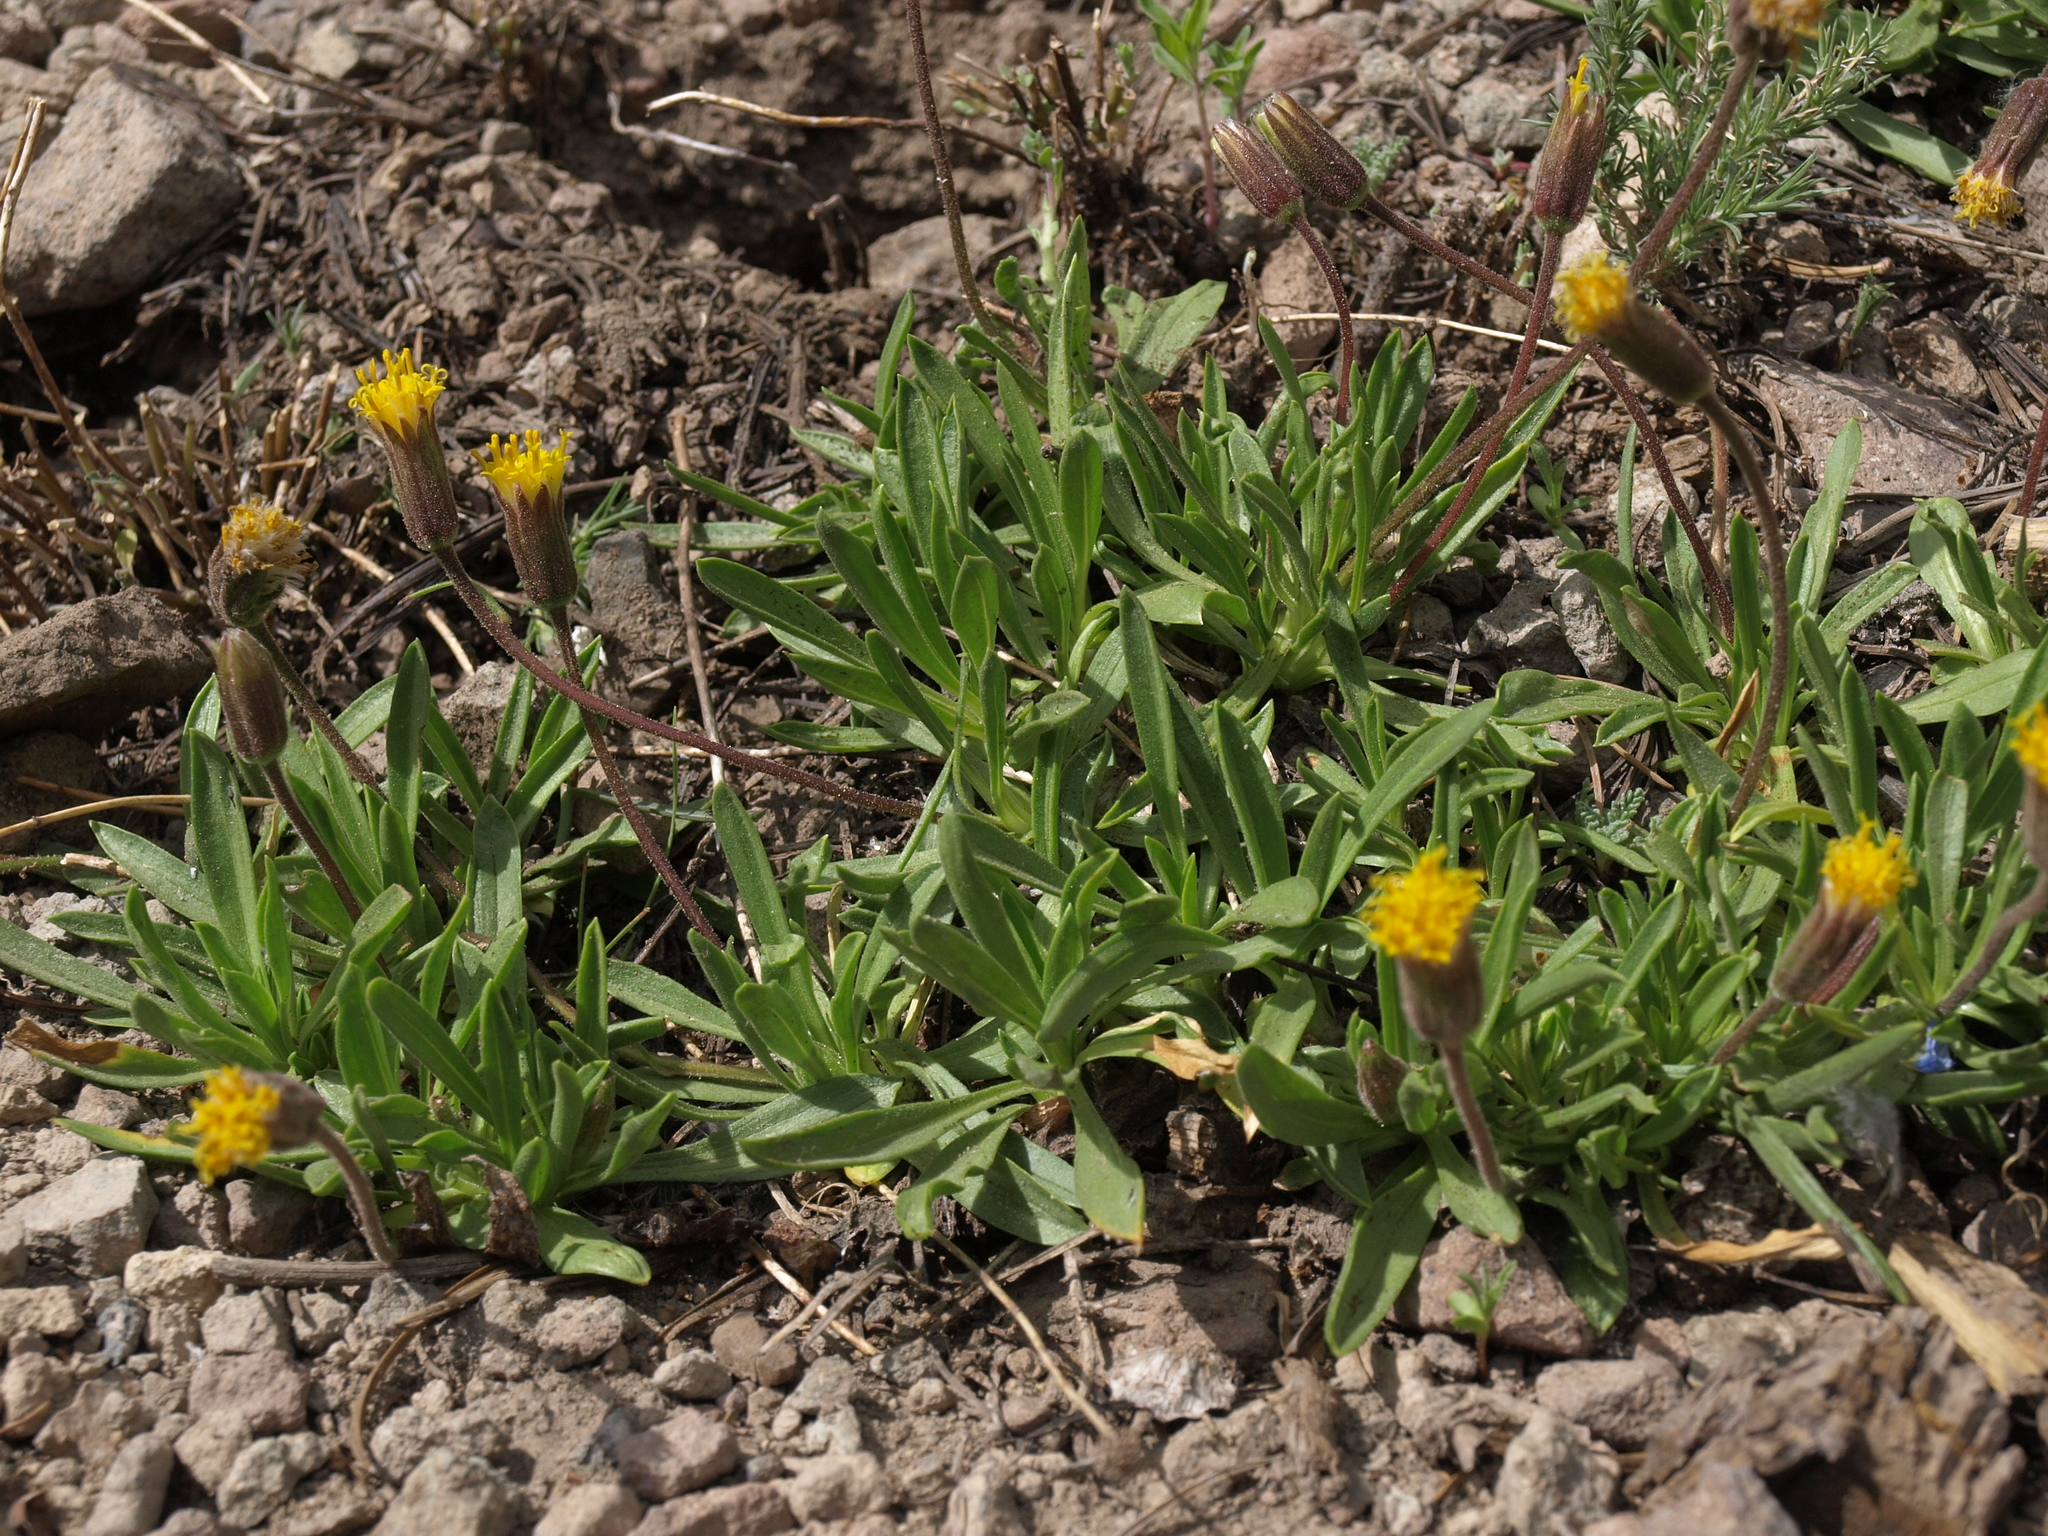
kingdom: Plantae
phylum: Tracheophyta
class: Magnoliopsida
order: Asterales
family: Asteraceae
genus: Raillardella
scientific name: Raillardella scaposa
